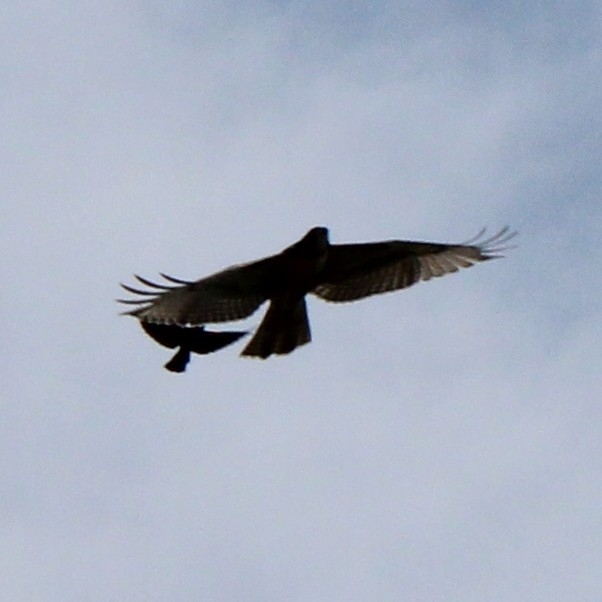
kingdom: Animalia
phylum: Chordata
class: Aves
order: Accipitriformes
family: Accipitridae
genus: Buteo
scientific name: Buteo jamaicensis
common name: Red-tailed hawk
